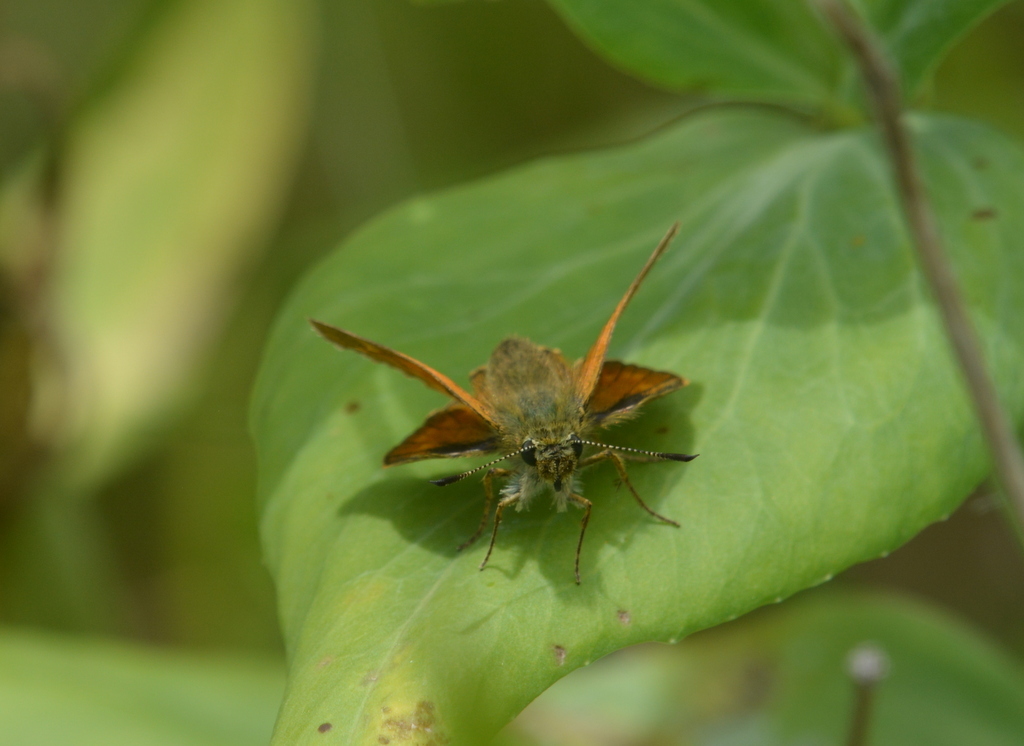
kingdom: Animalia
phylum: Arthropoda
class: Insecta
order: Lepidoptera
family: Hesperiidae
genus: Ochlodes
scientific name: Ochlodes venata
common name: Large skipper
